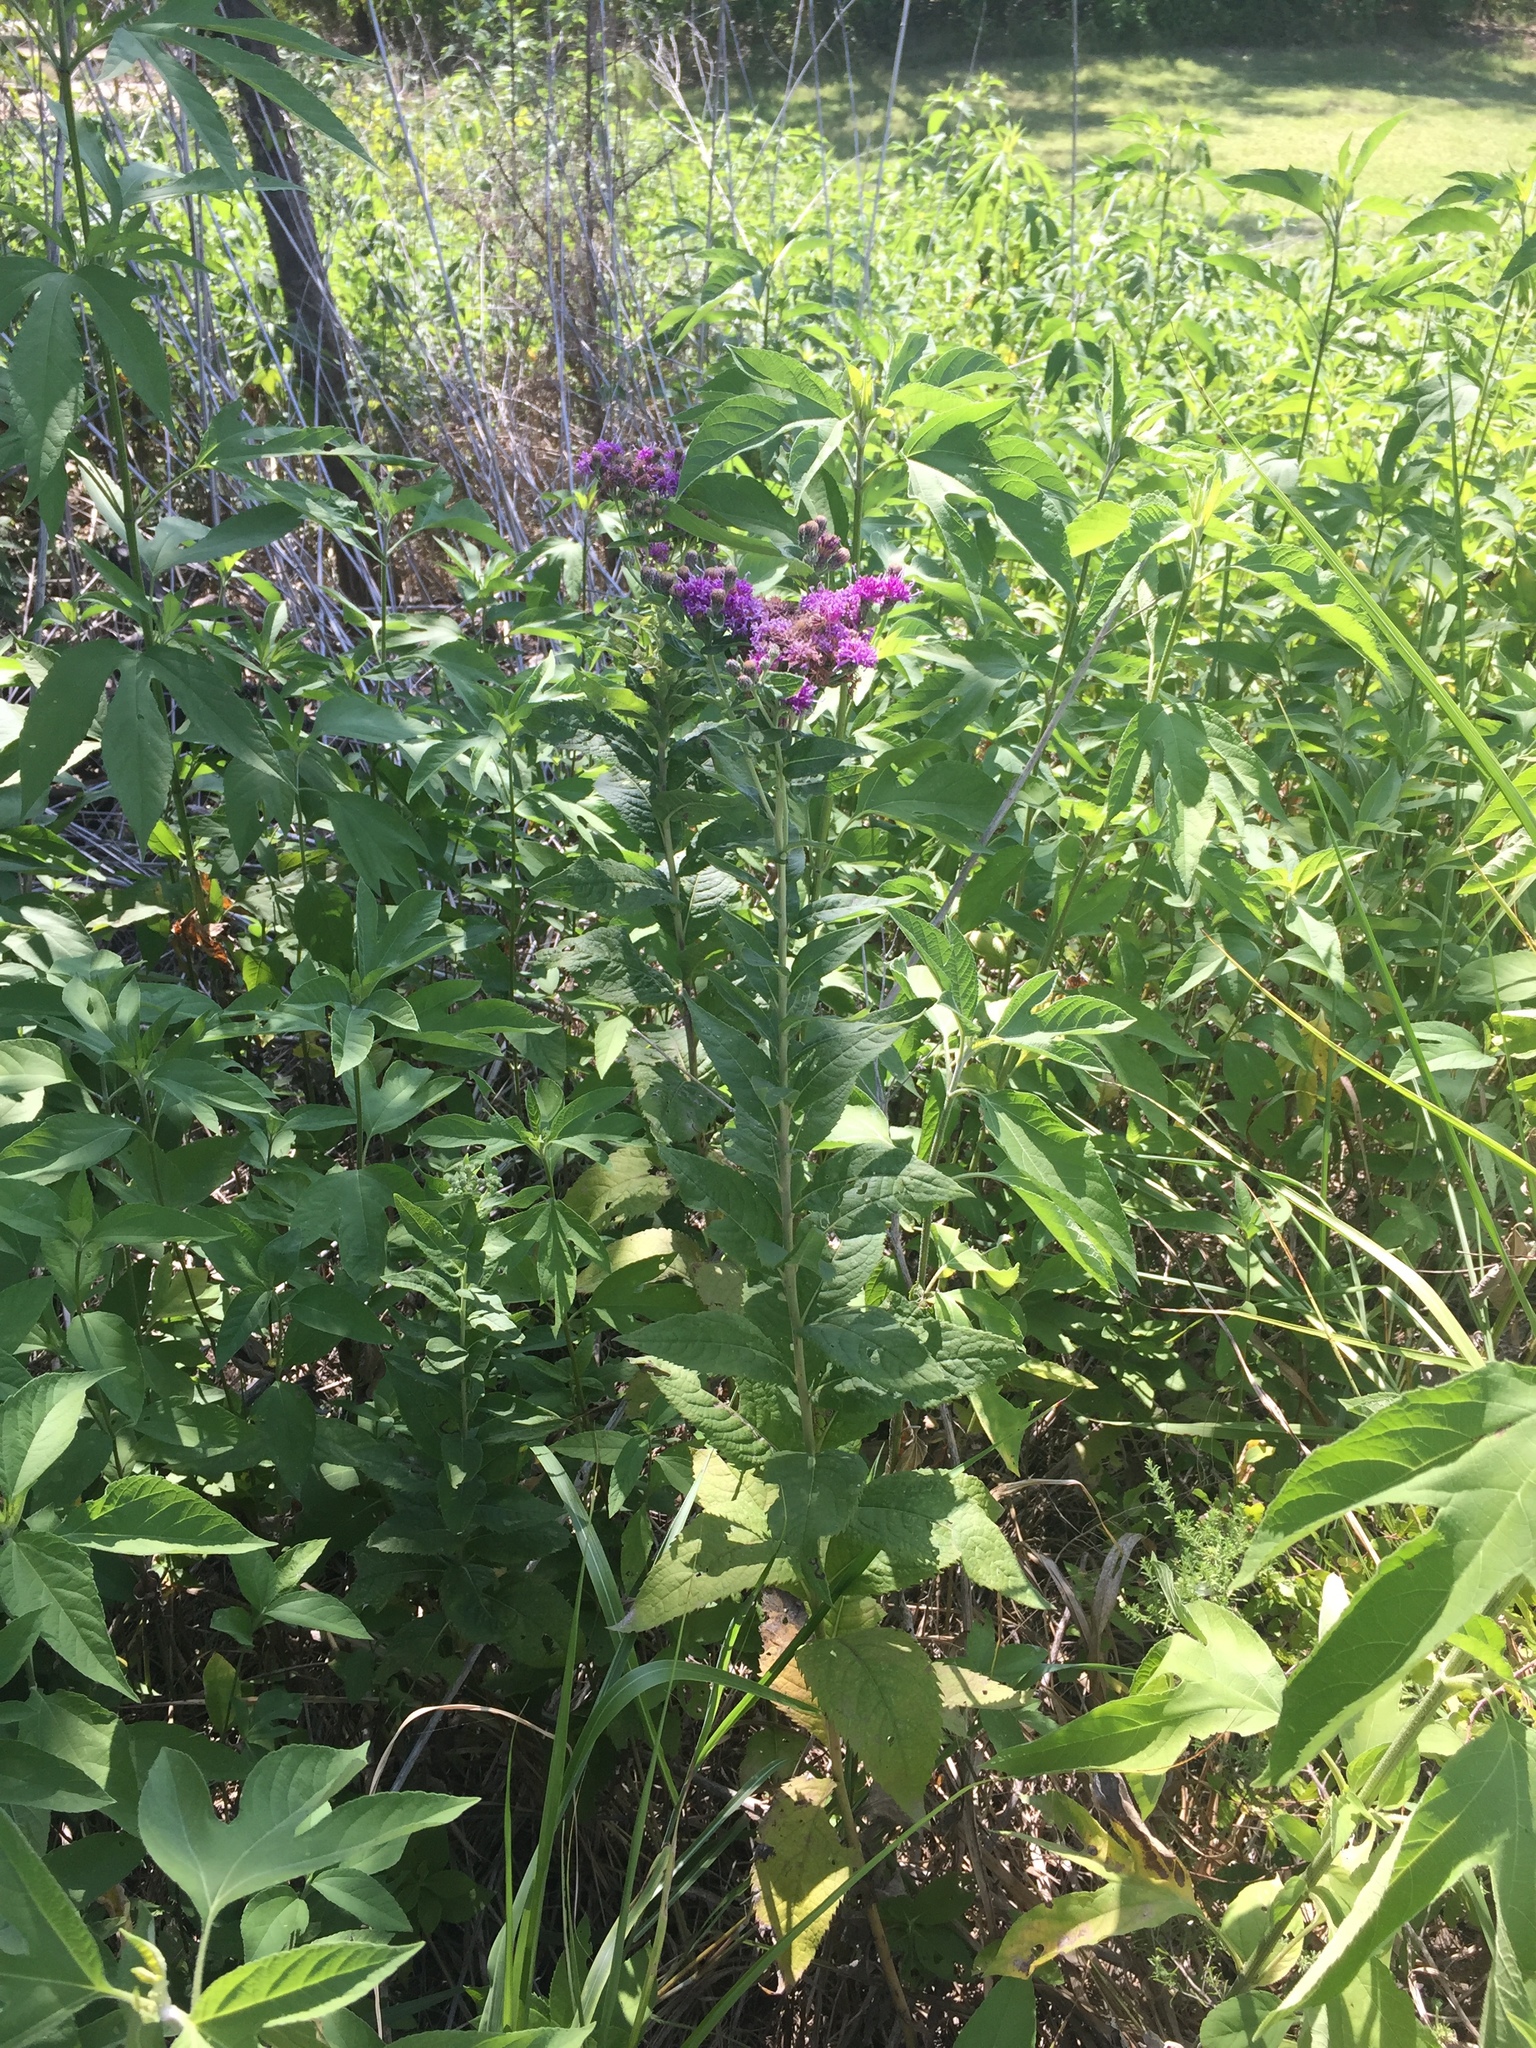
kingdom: Plantae
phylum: Tracheophyta
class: Magnoliopsida
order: Asterales
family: Asteraceae
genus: Vernonia
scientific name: Vernonia baldwinii
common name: Western ironweed
